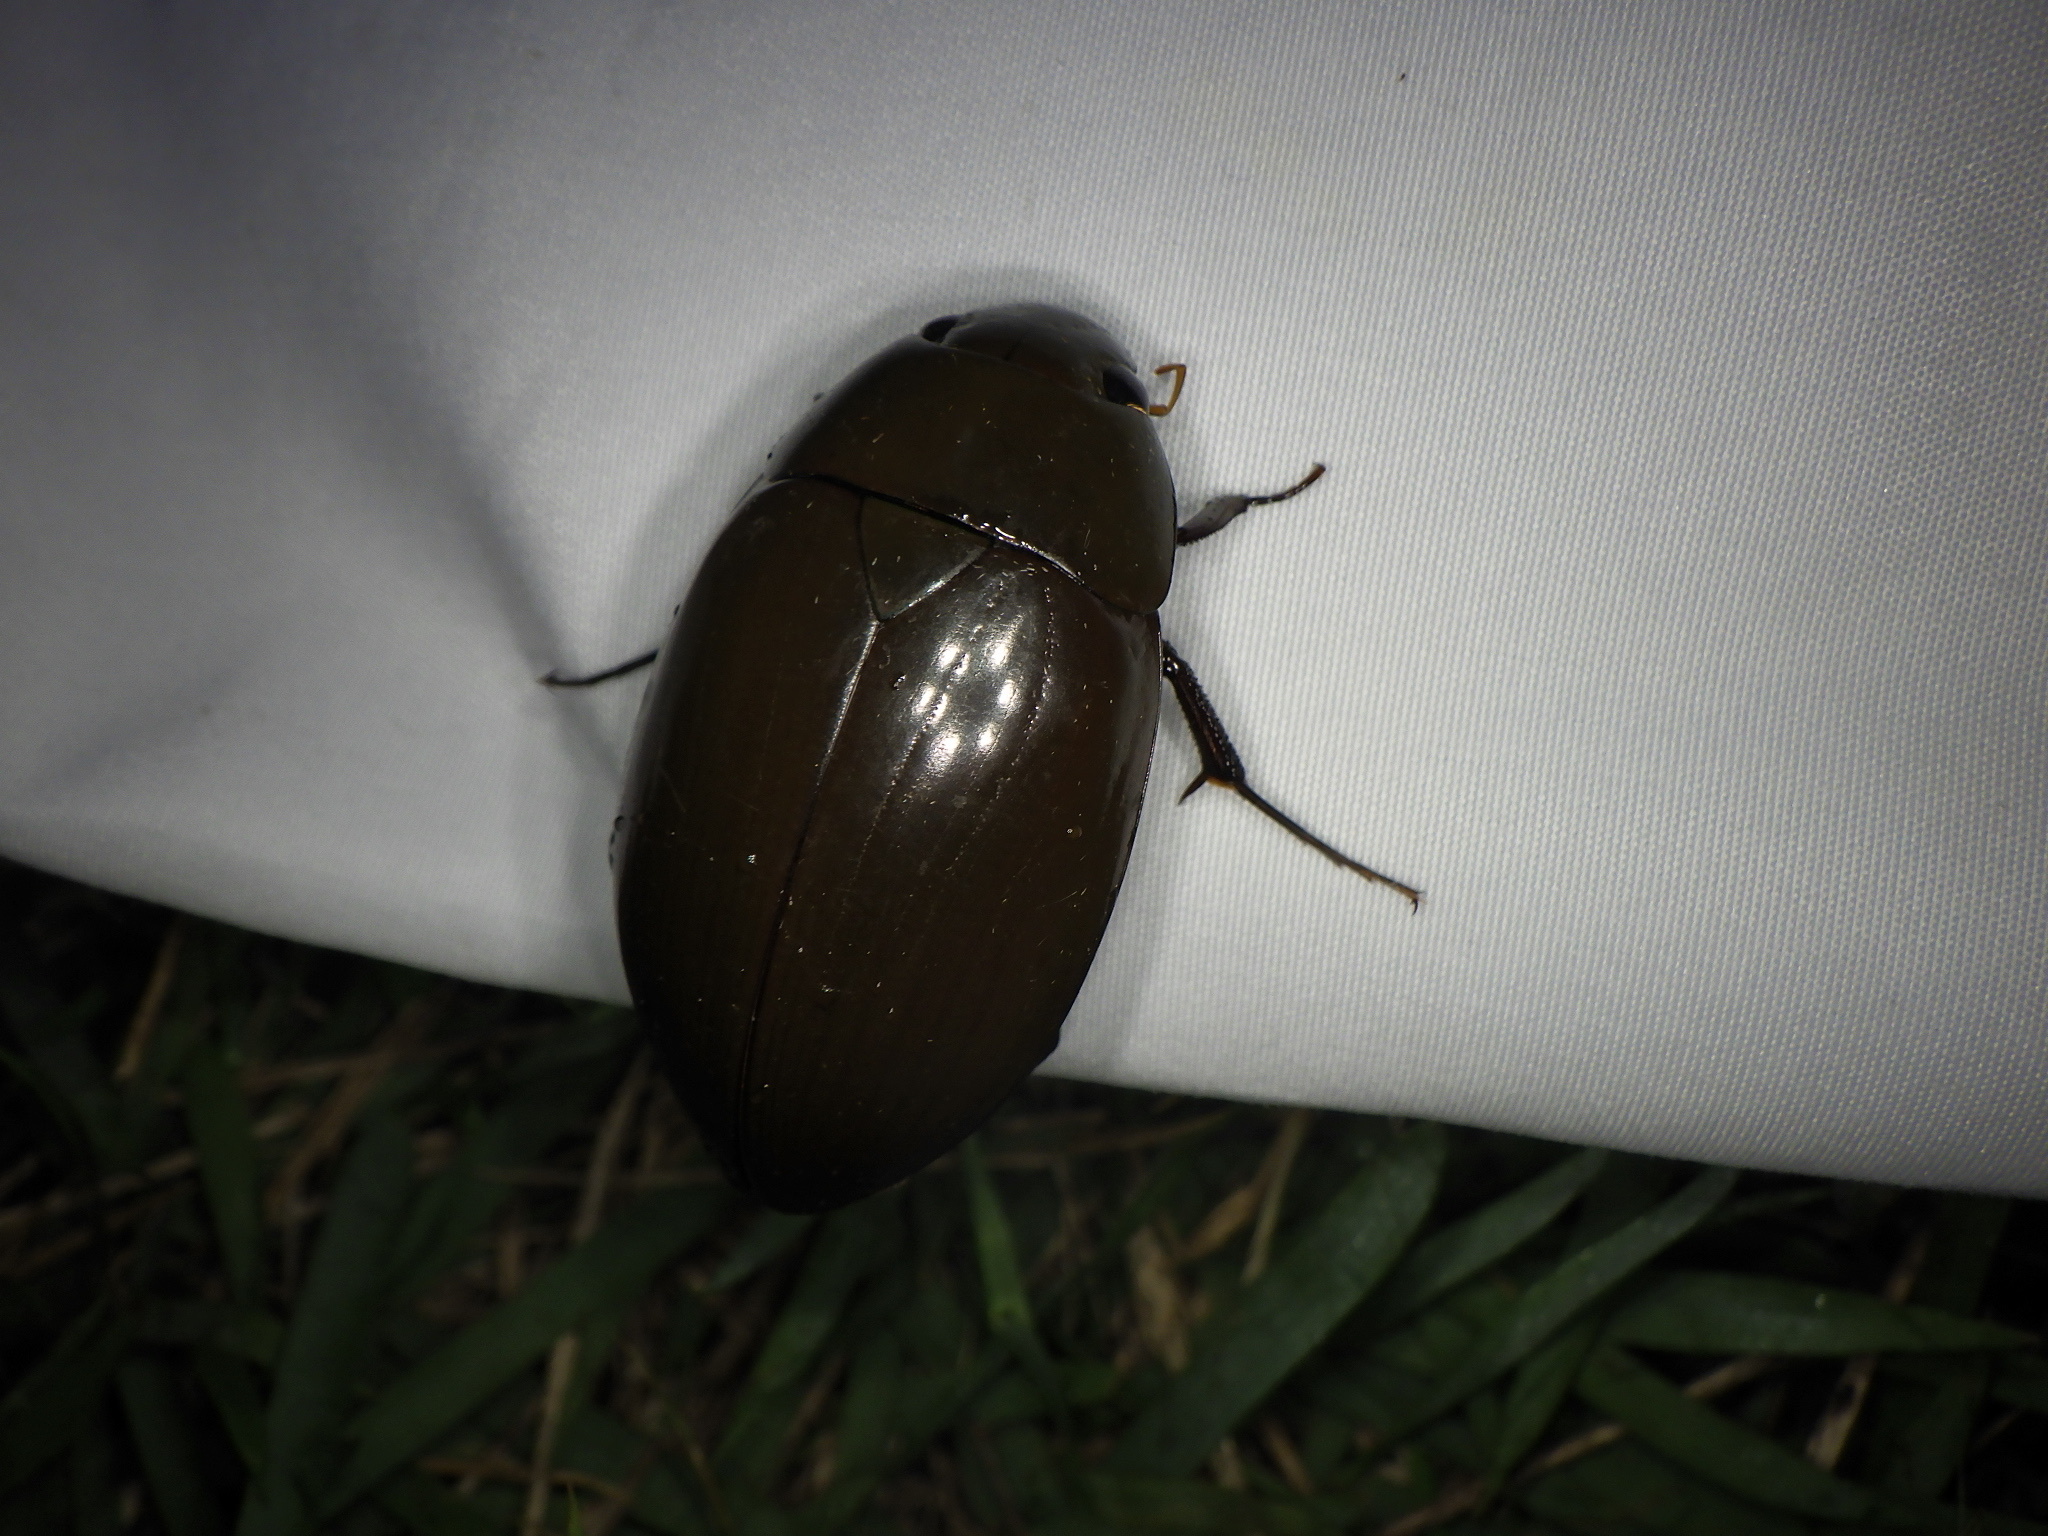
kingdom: Animalia
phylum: Arthropoda
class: Insecta
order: Coleoptera
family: Hydrophilidae
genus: Hydrophilus
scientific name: Hydrophilus acuminatus
